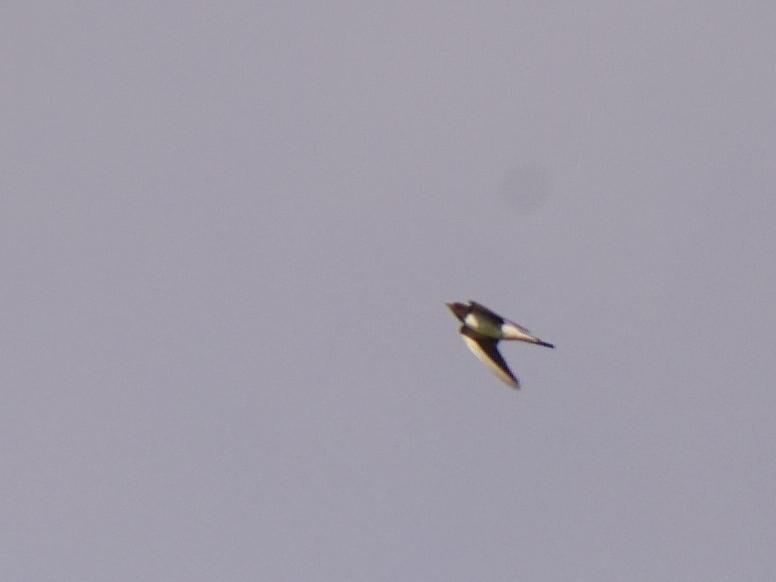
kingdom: Animalia
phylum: Chordata
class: Aves
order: Passeriformes
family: Hirundinidae
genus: Hirundo
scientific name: Hirundo rustica
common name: Barn swallow
